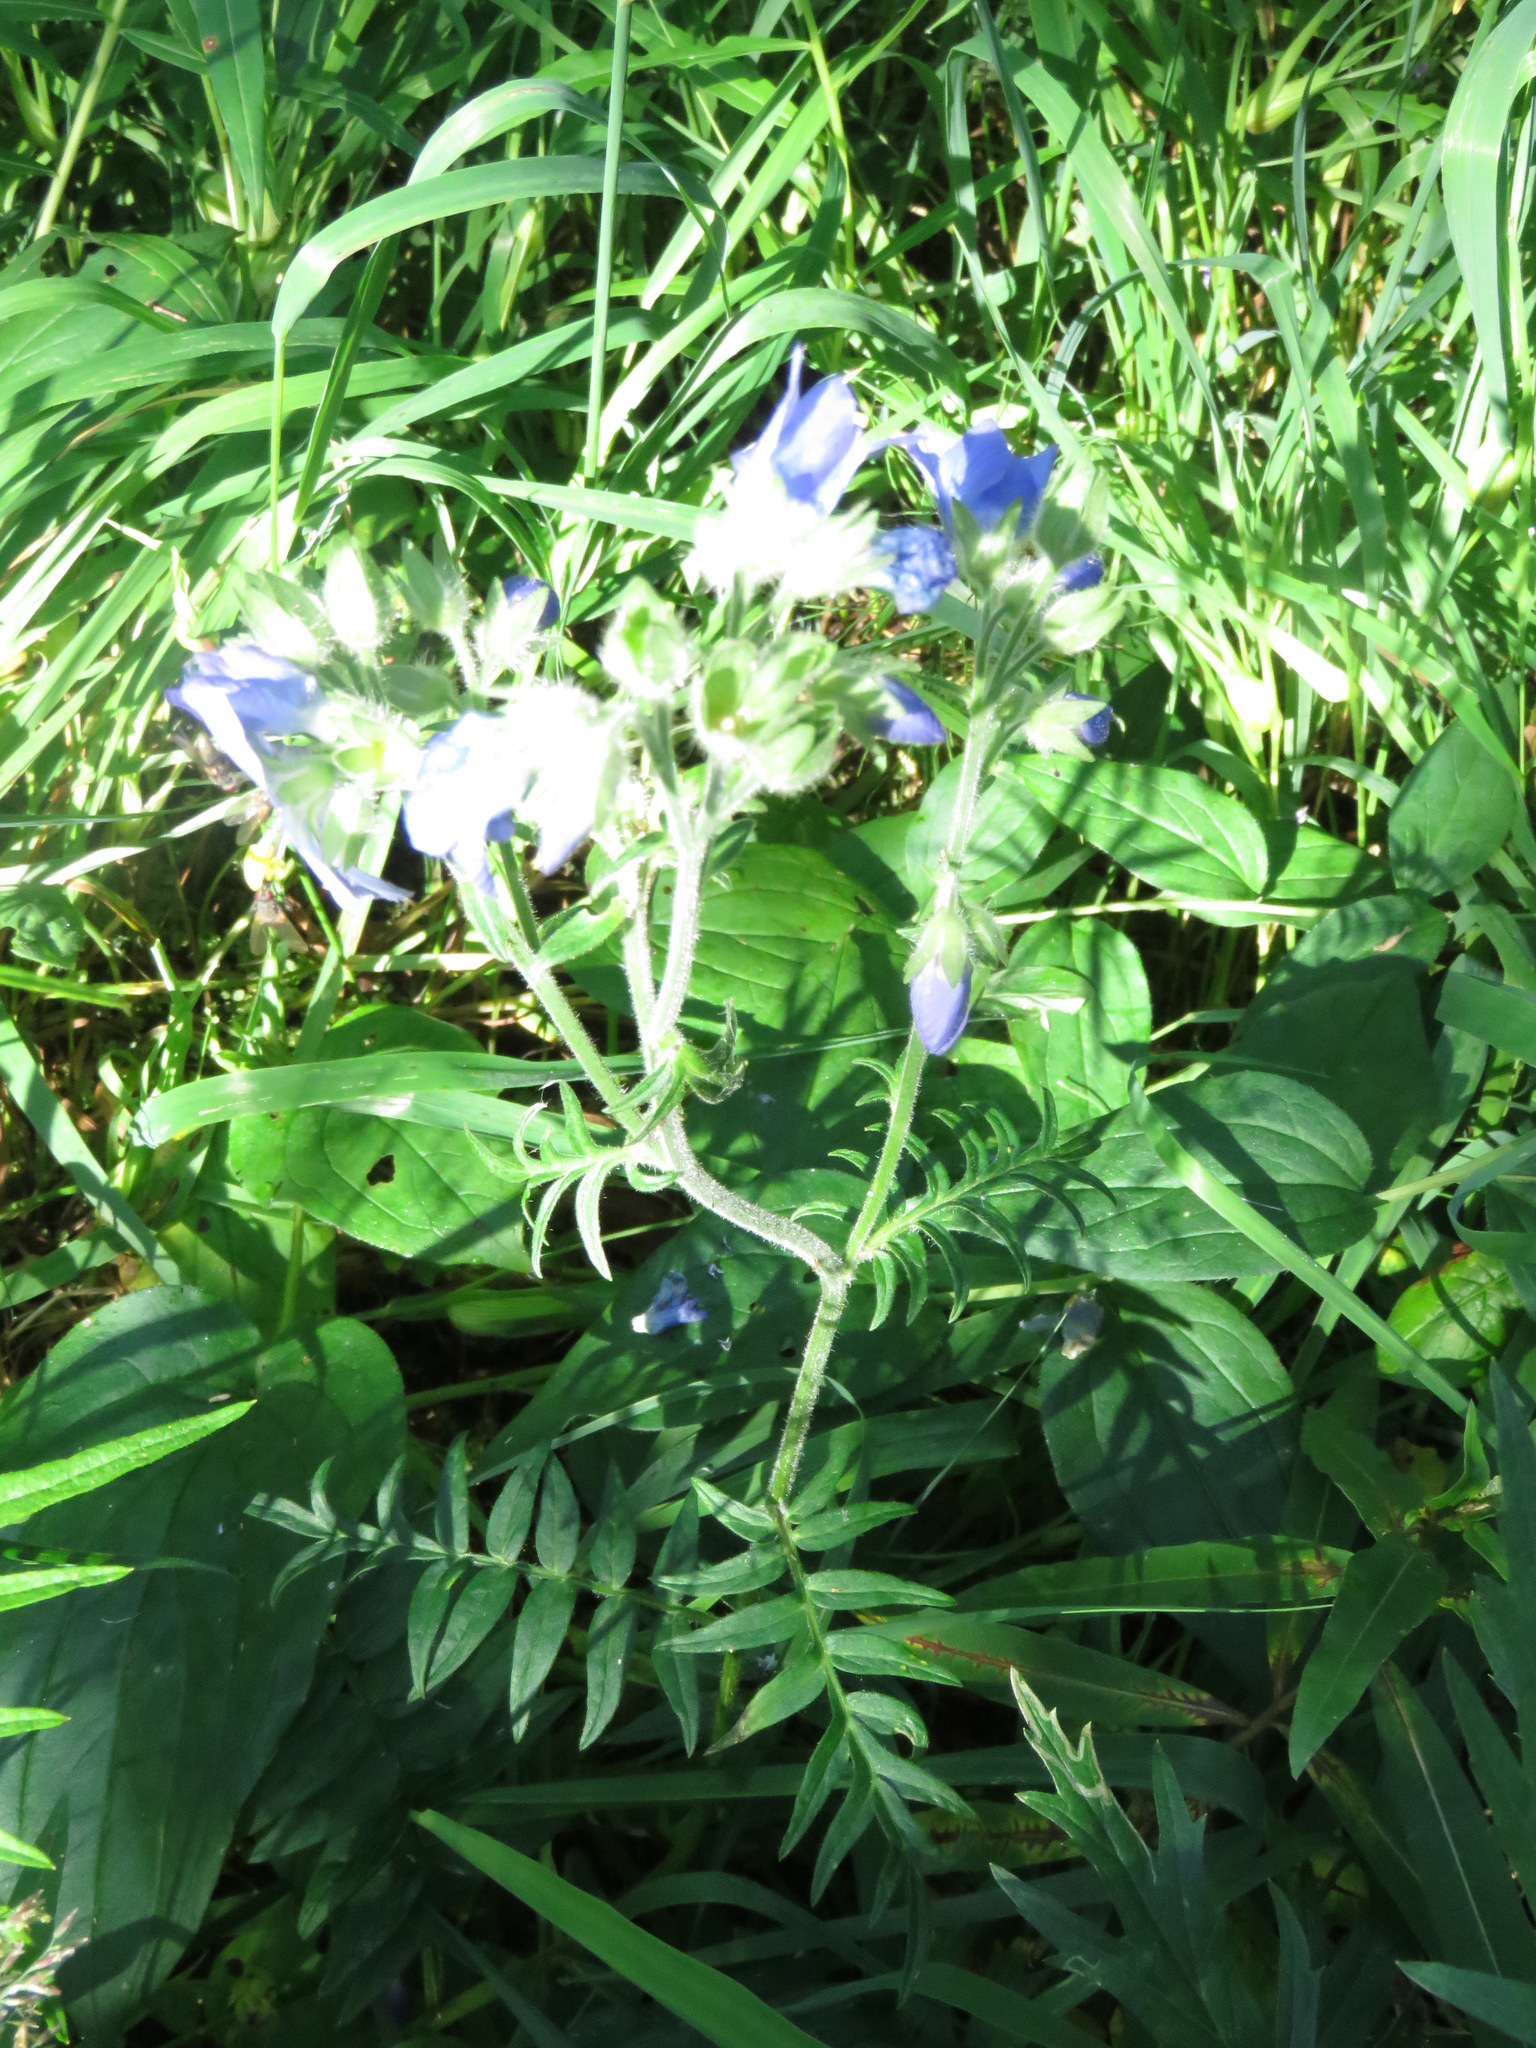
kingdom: Plantae
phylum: Tracheophyta
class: Magnoliopsida
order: Ericales
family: Polemoniaceae
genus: Polemonium
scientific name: Polemonium acutiflorum
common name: Tall jacob's-ladder
